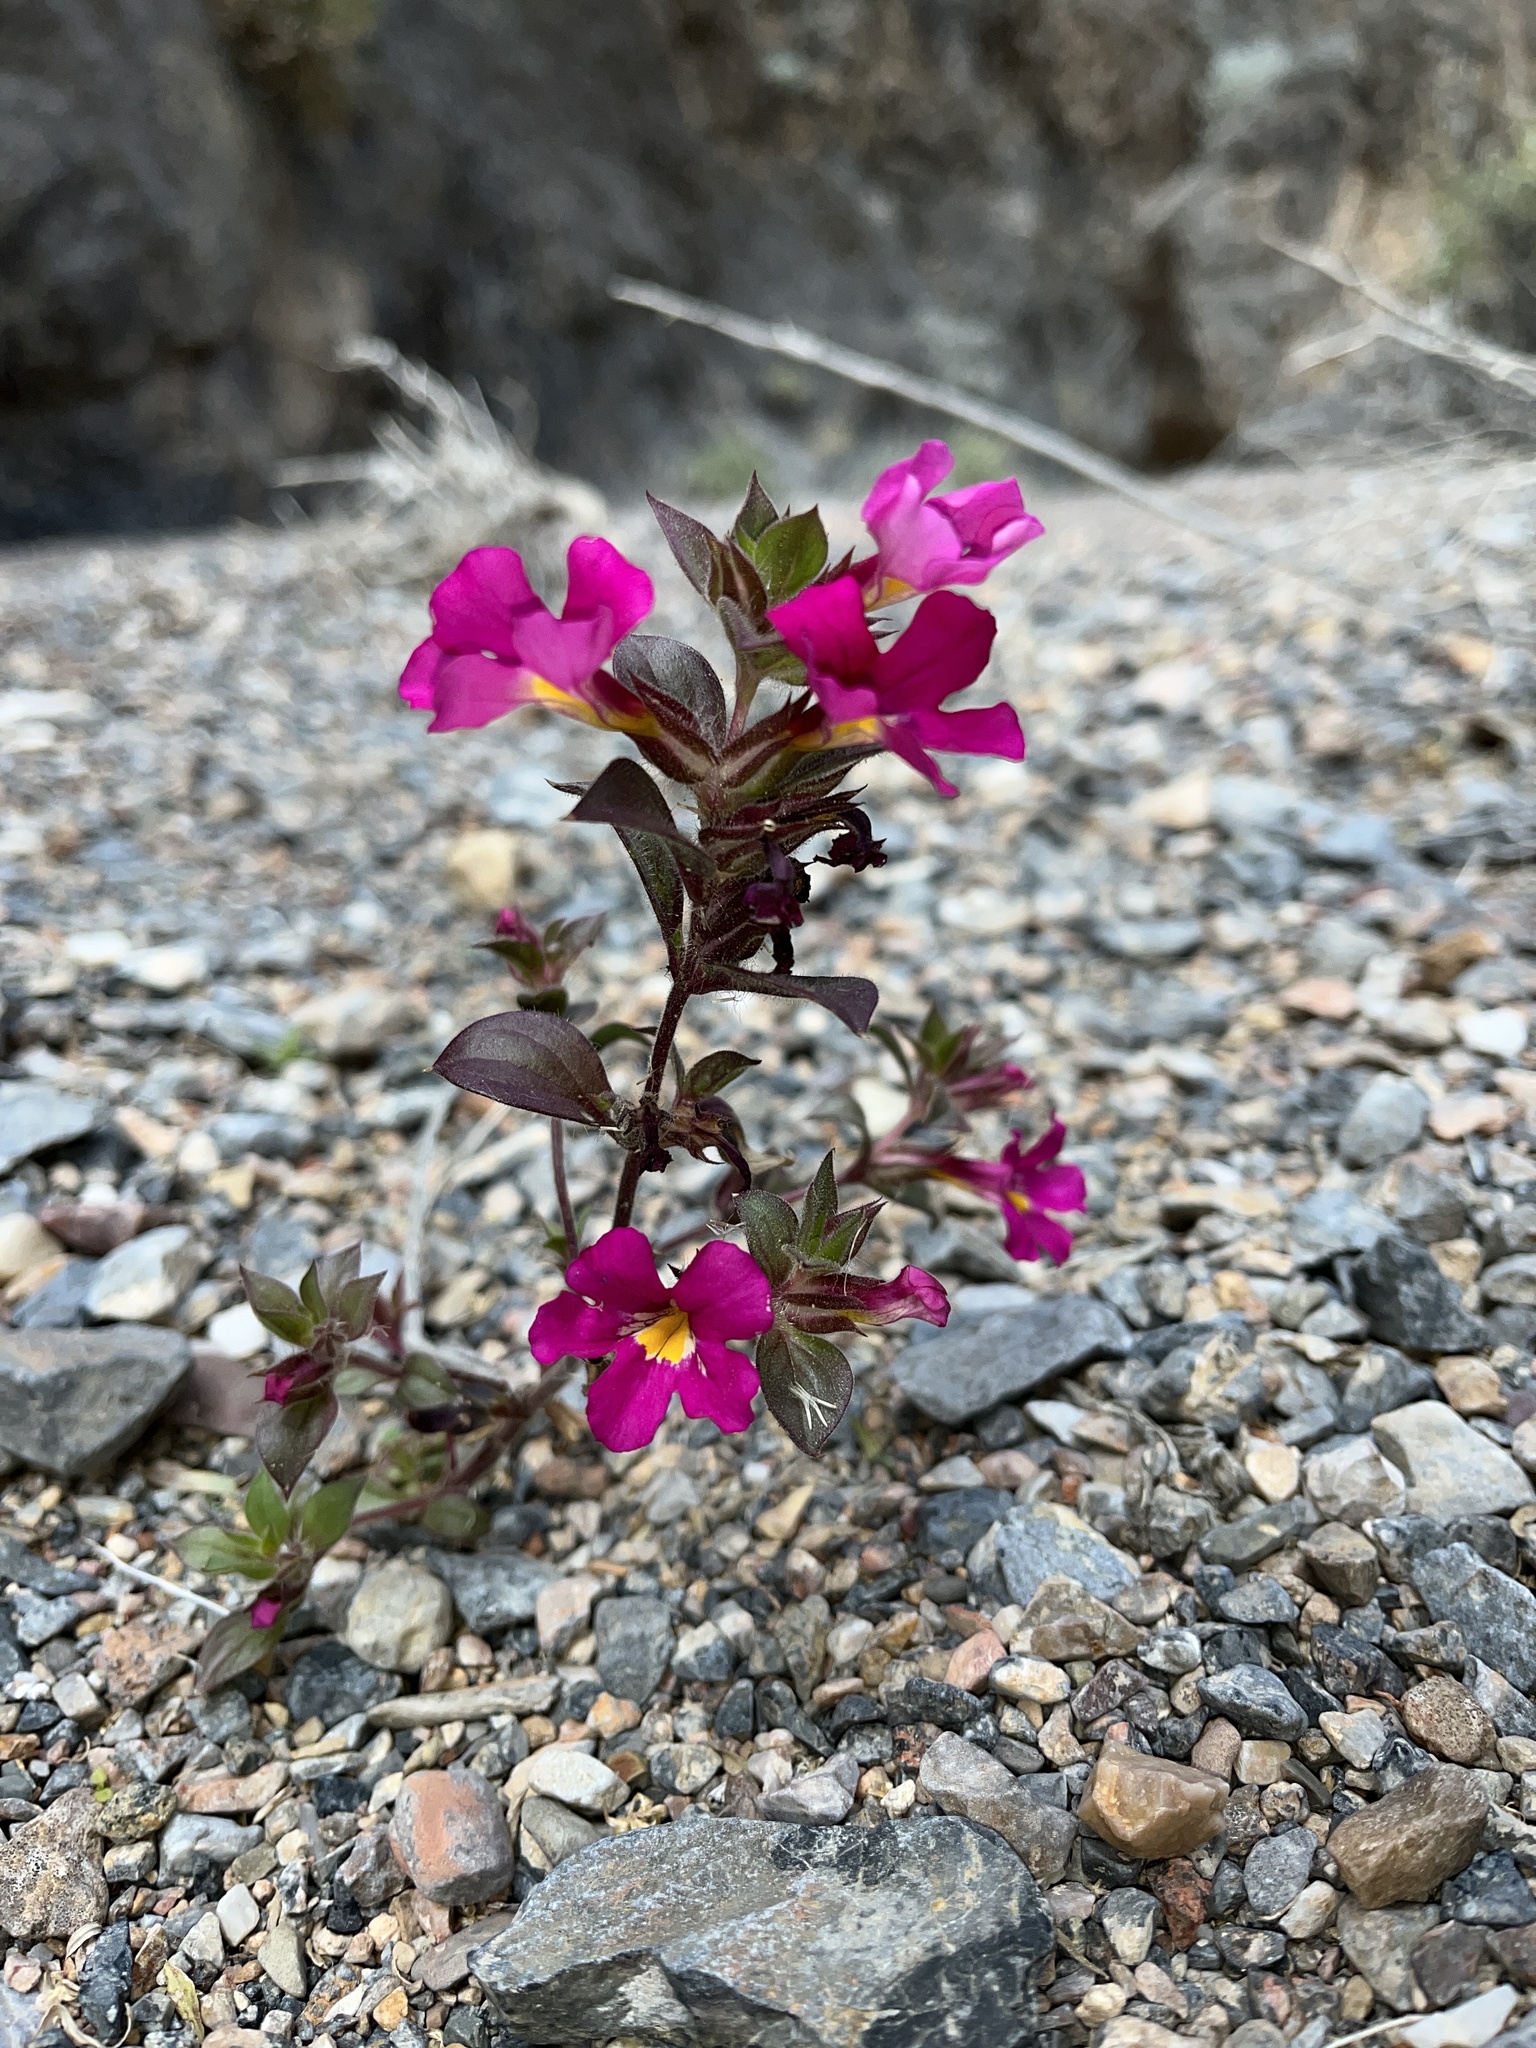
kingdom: Plantae
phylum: Tracheophyta
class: Magnoliopsida
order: Lamiales
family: Phrymaceae
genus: Diplacus
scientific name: Diplacus bigelovii
